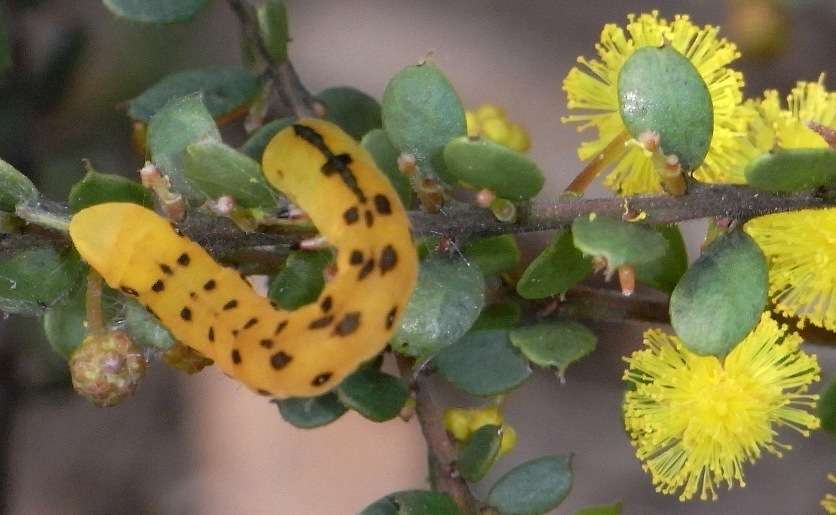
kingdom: Plantae
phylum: Tracheophyta
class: Magnoliopsida
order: Fabales
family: Fabaceae
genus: Acacia
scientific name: Acacia acinacea
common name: Gold-dust acacia
